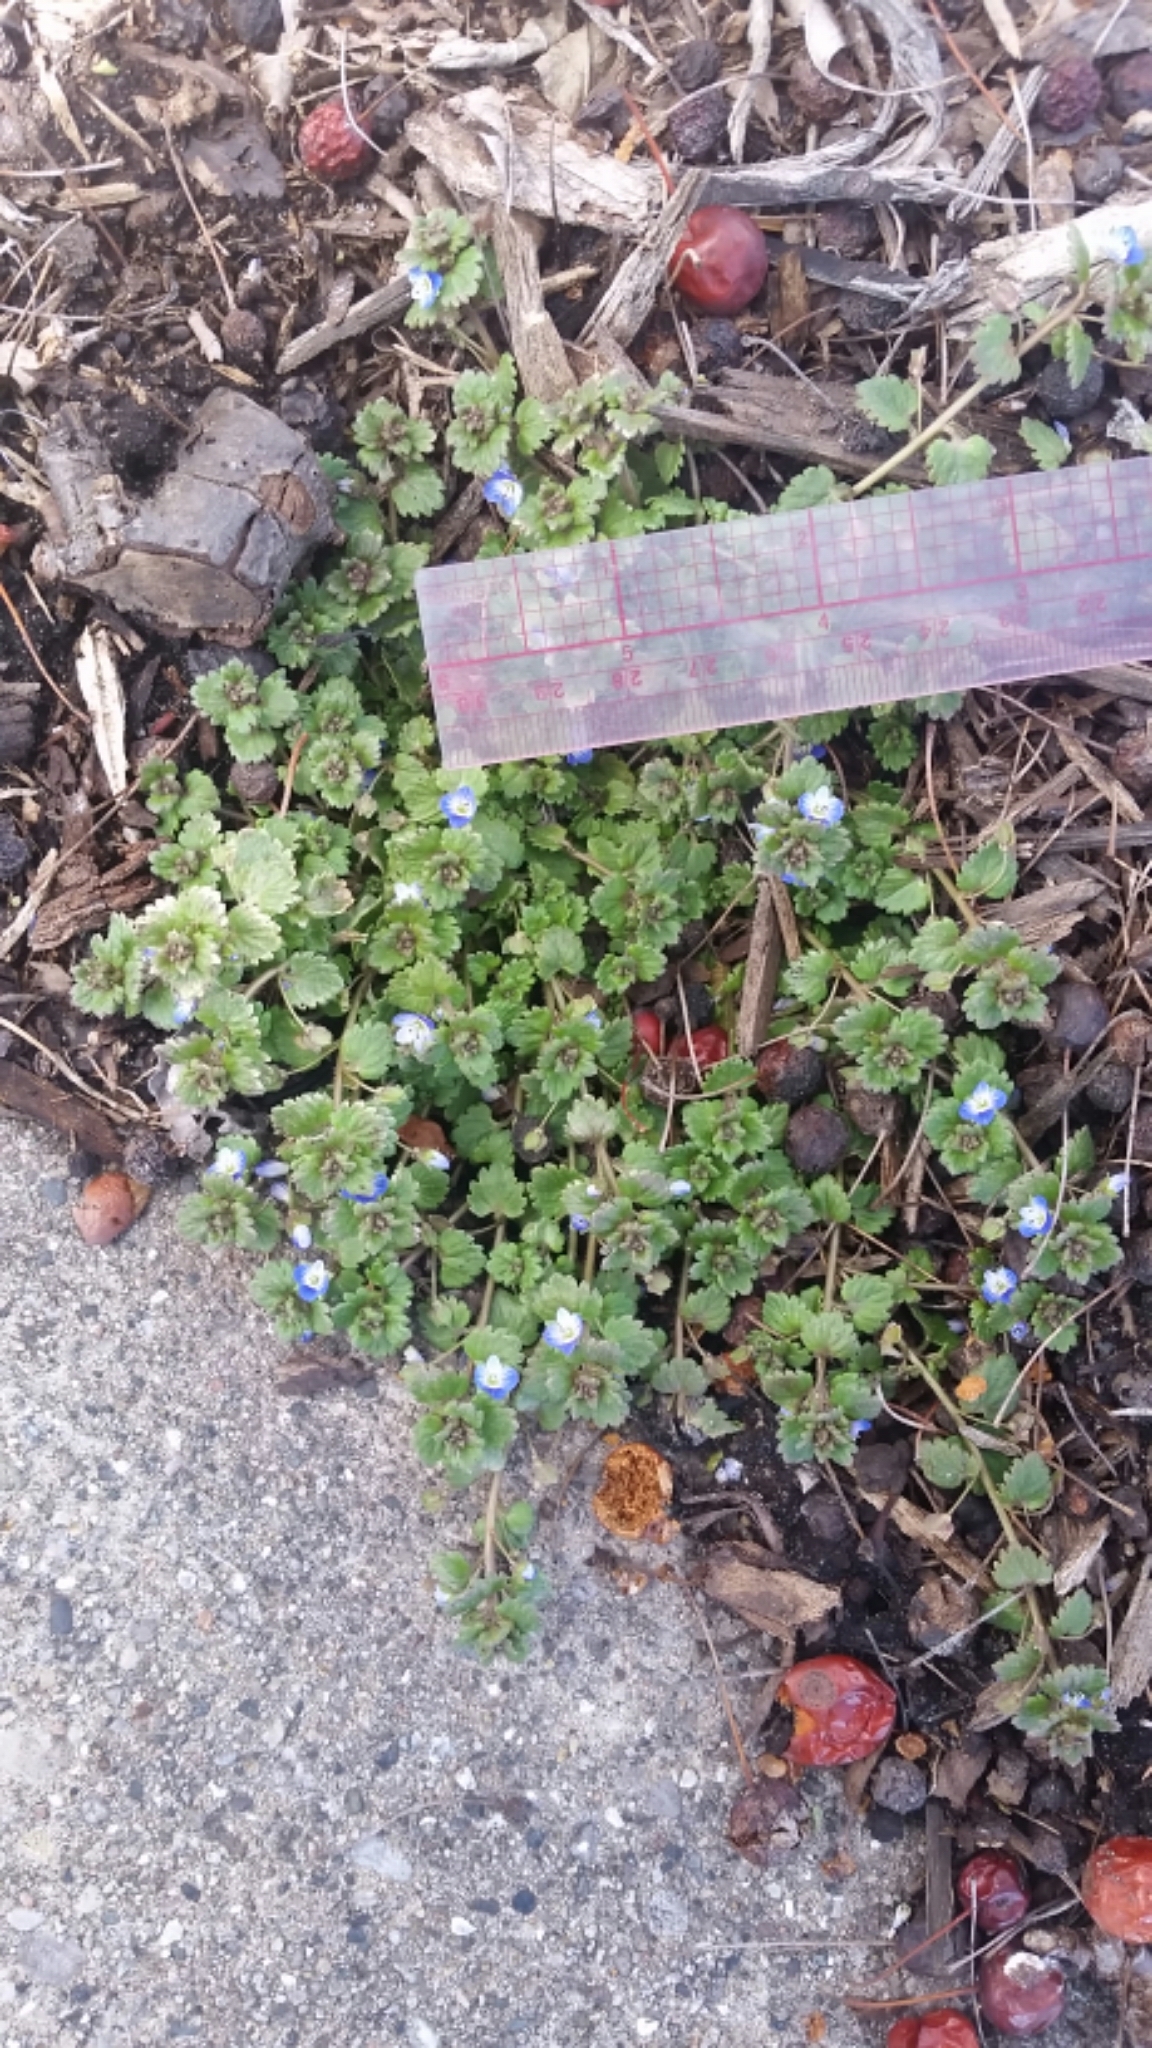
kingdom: Plantae
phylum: Tracheophyta
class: Magnoliopsida
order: Lamiales
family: Plantaginaceae
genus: Veronica
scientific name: Veronica polita
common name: Grey field-speedwell
